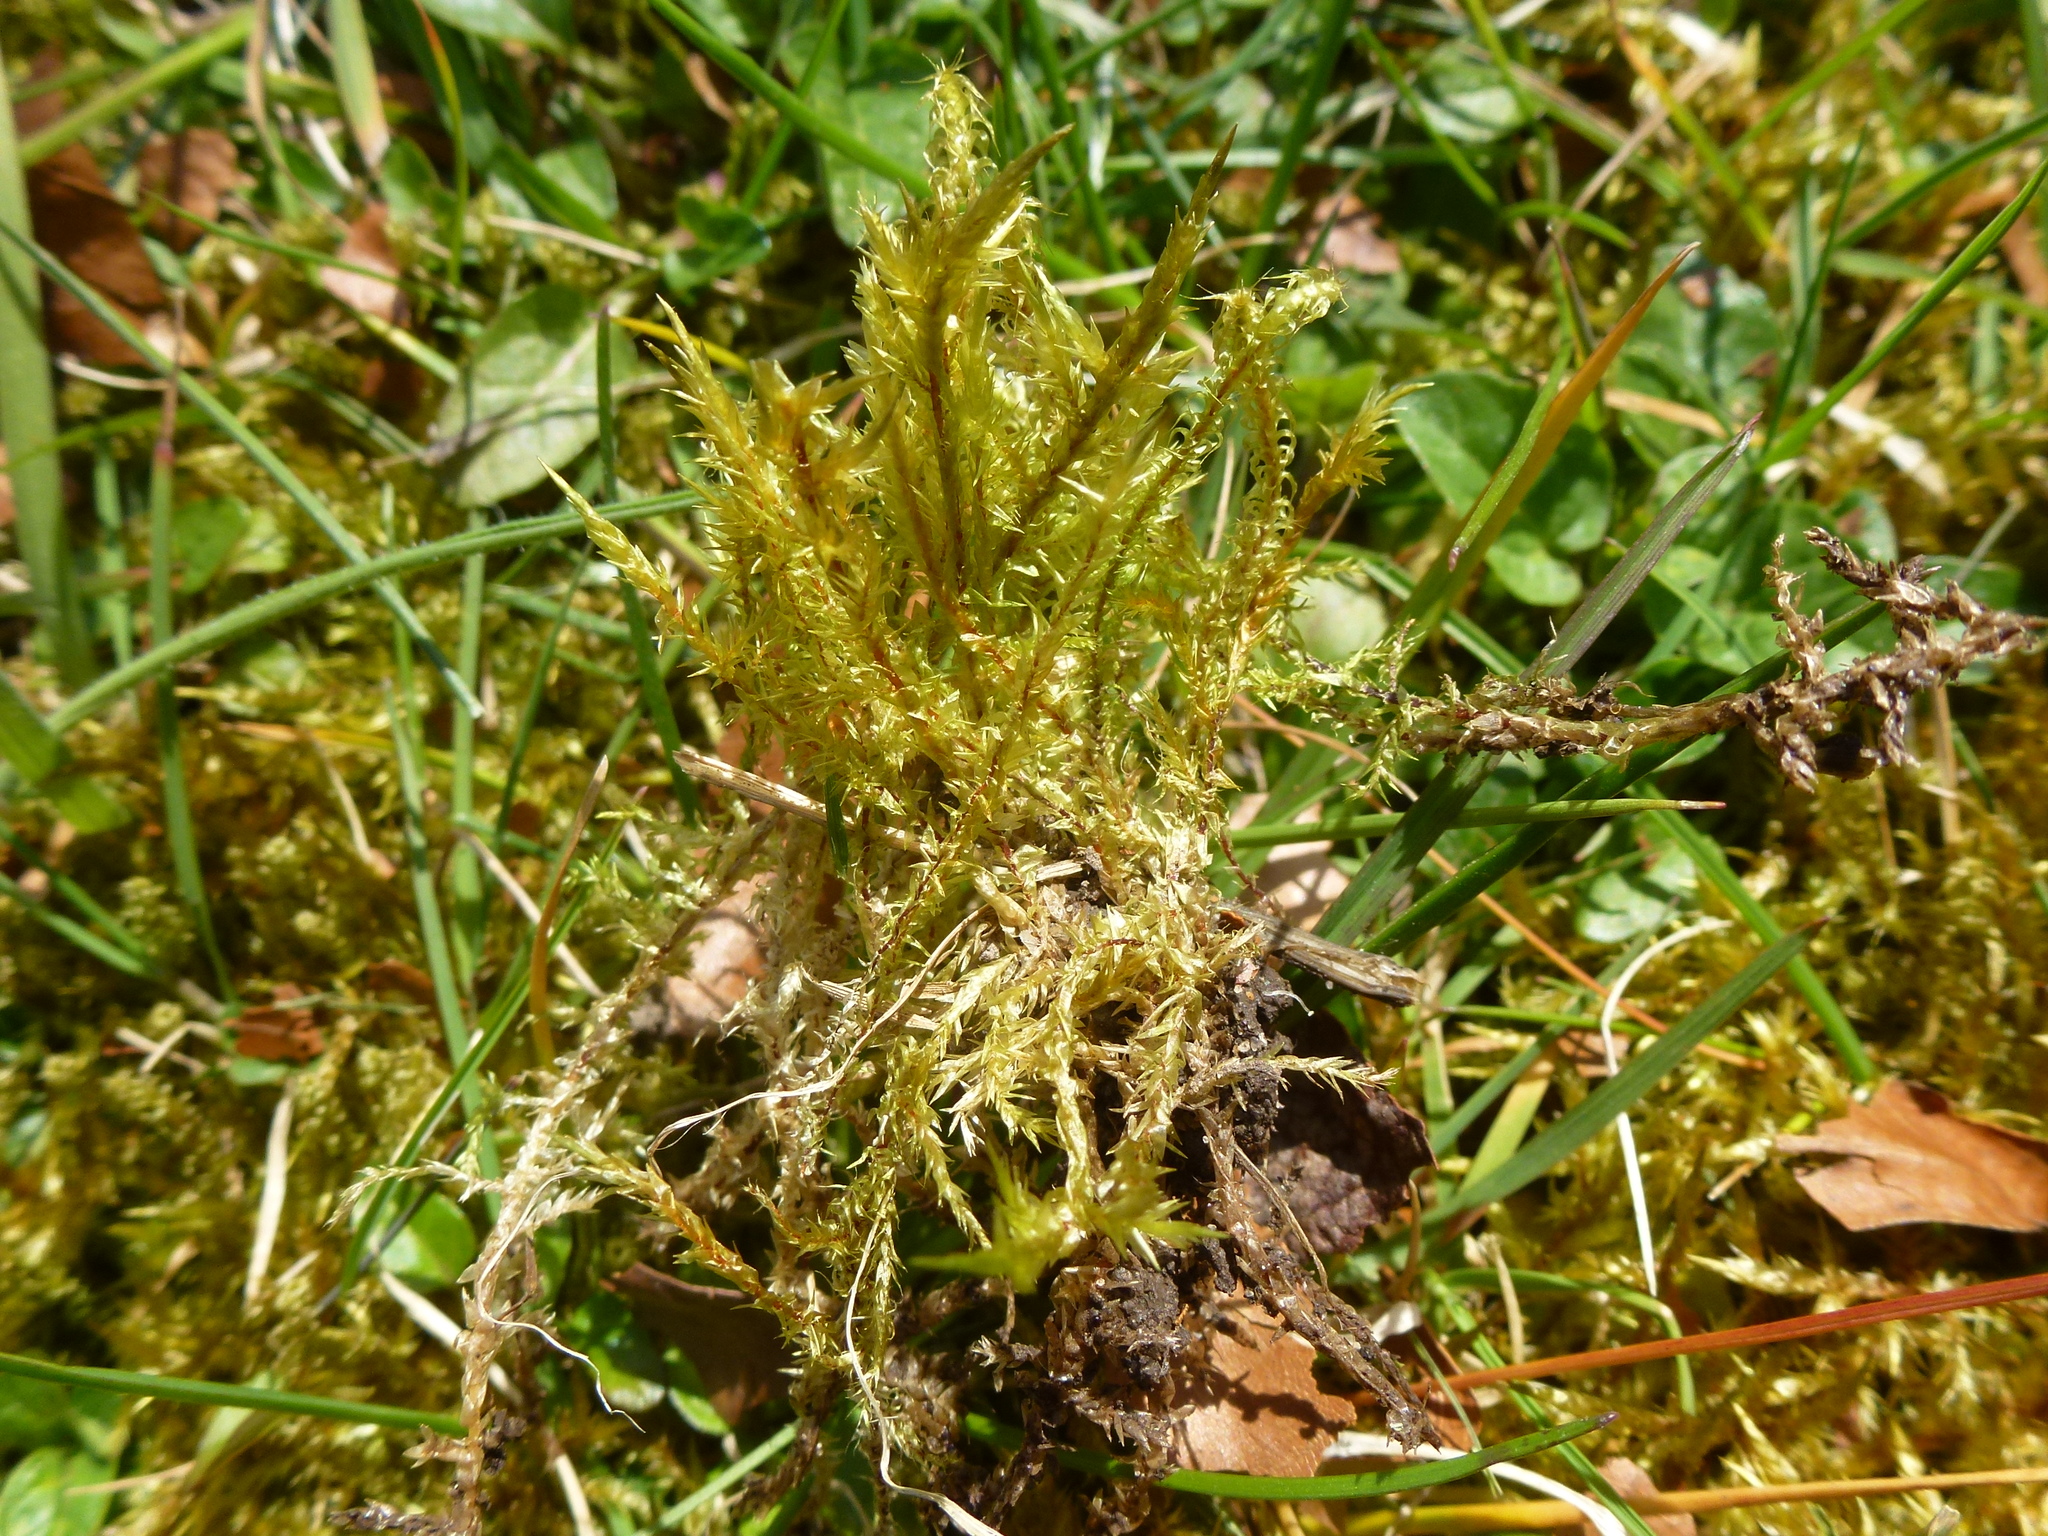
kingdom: Plantae
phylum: Bryophyta
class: Bryopsida
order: Hypnales
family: Pylaisiaceae
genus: Calliergonella
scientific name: Calliergonella cuspidata
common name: Common large wetland moss
